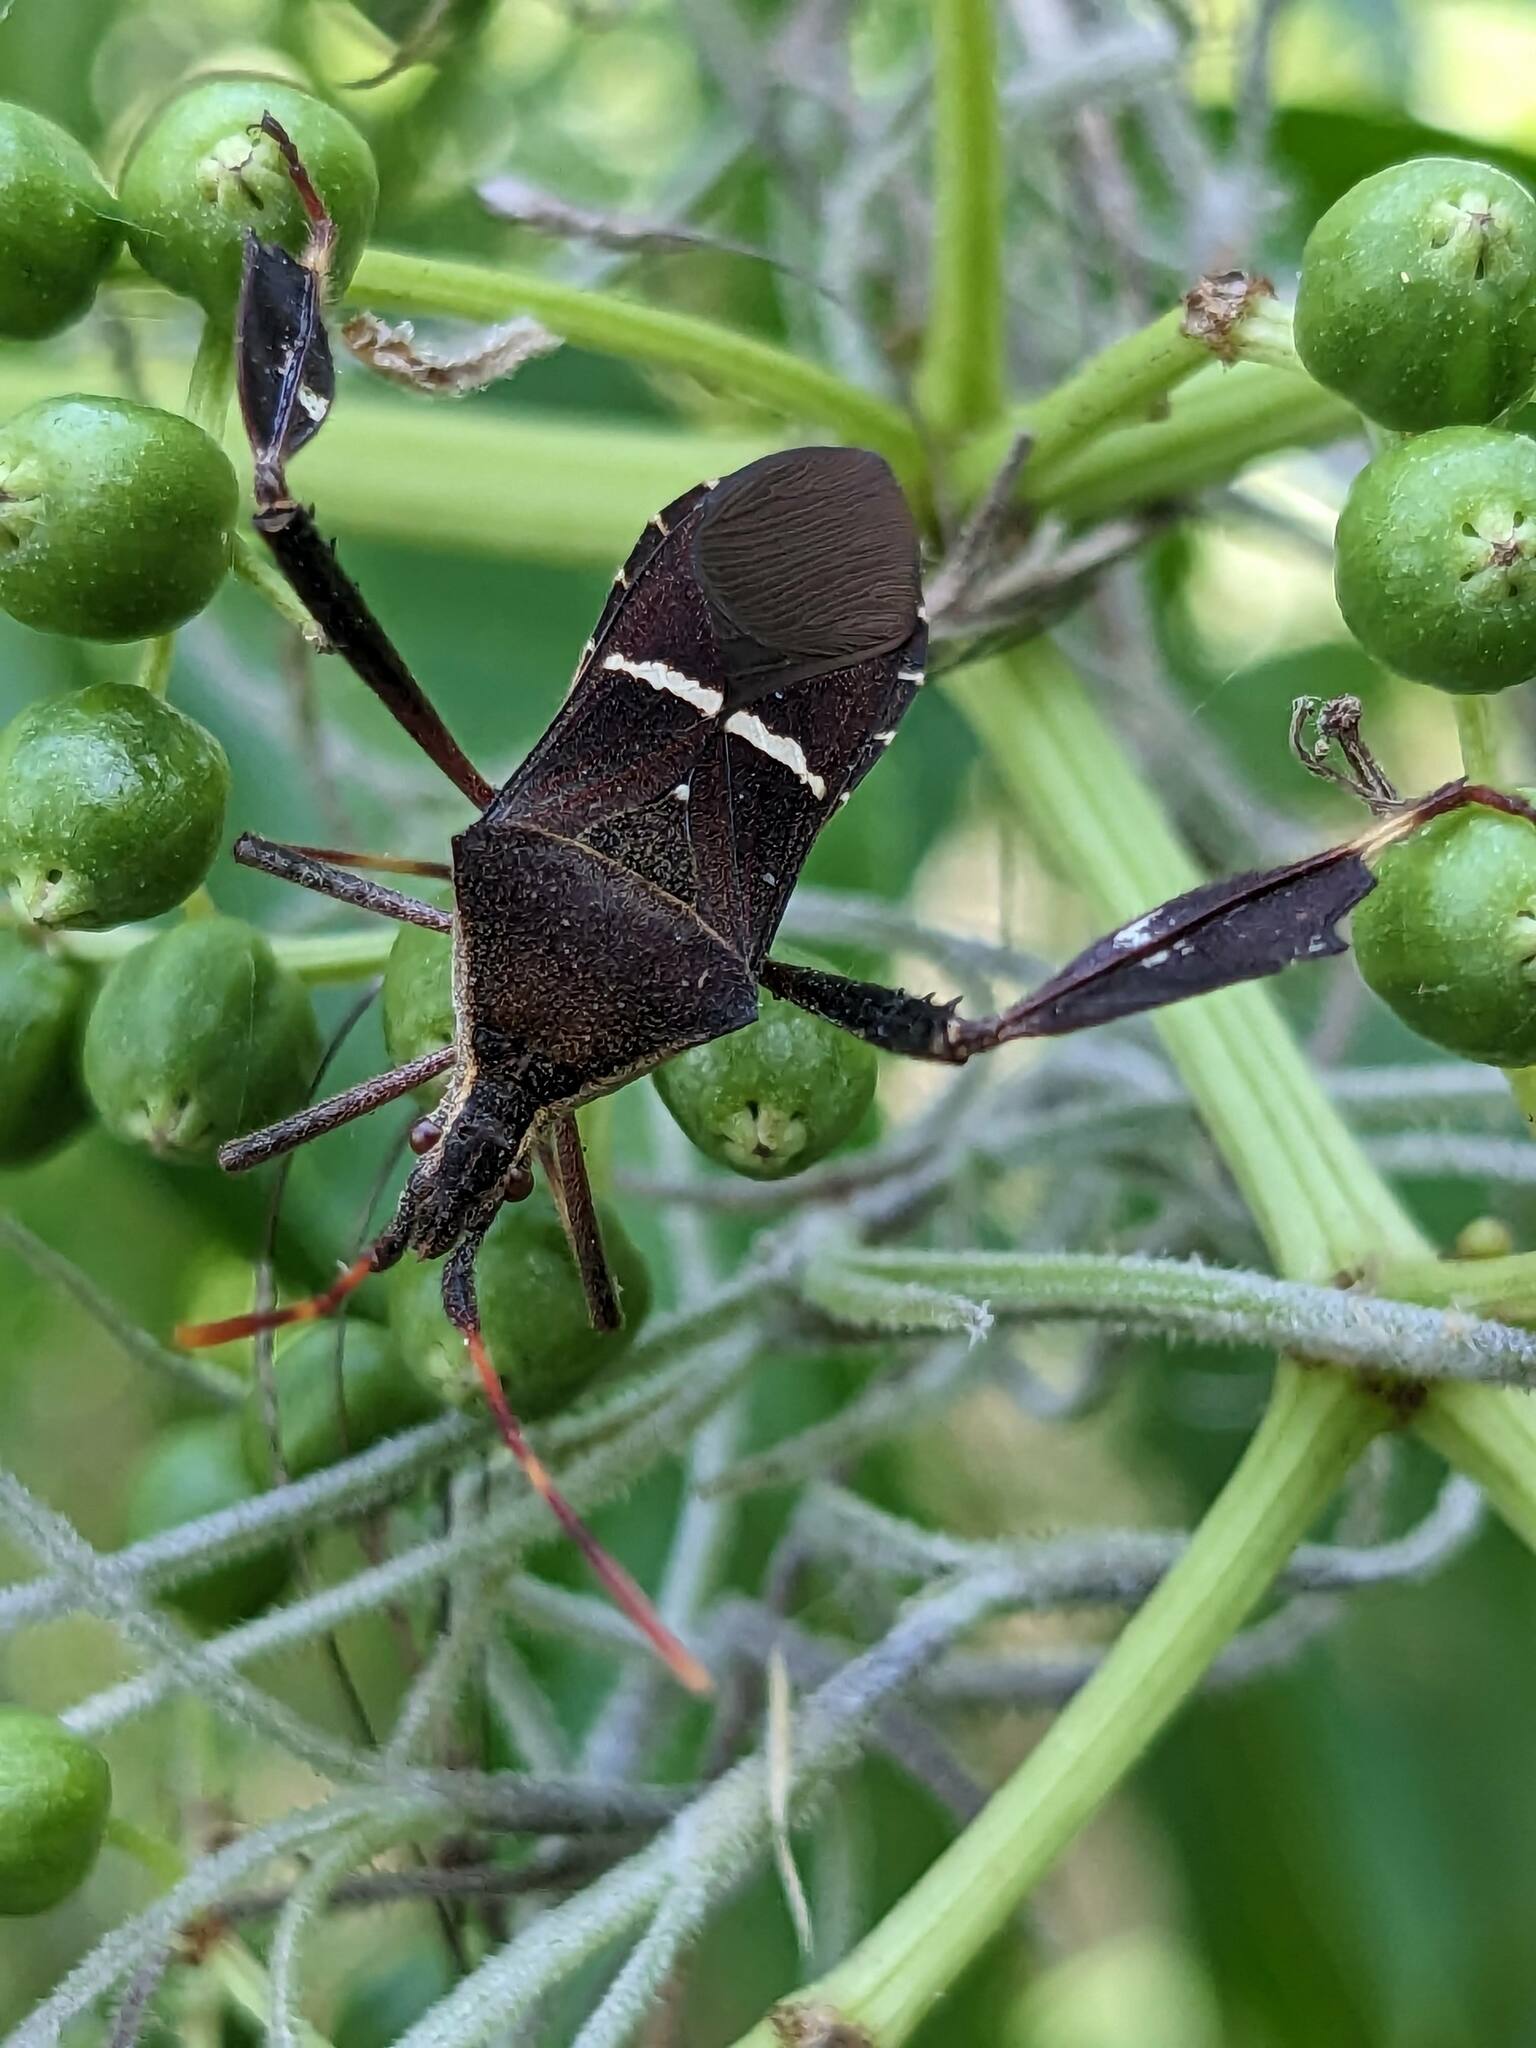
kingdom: Animalia
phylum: Arthropoda
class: Insecta
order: Hemiptera
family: Coreidae
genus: Leptoglossus
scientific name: Leptoglossus phyllopus
